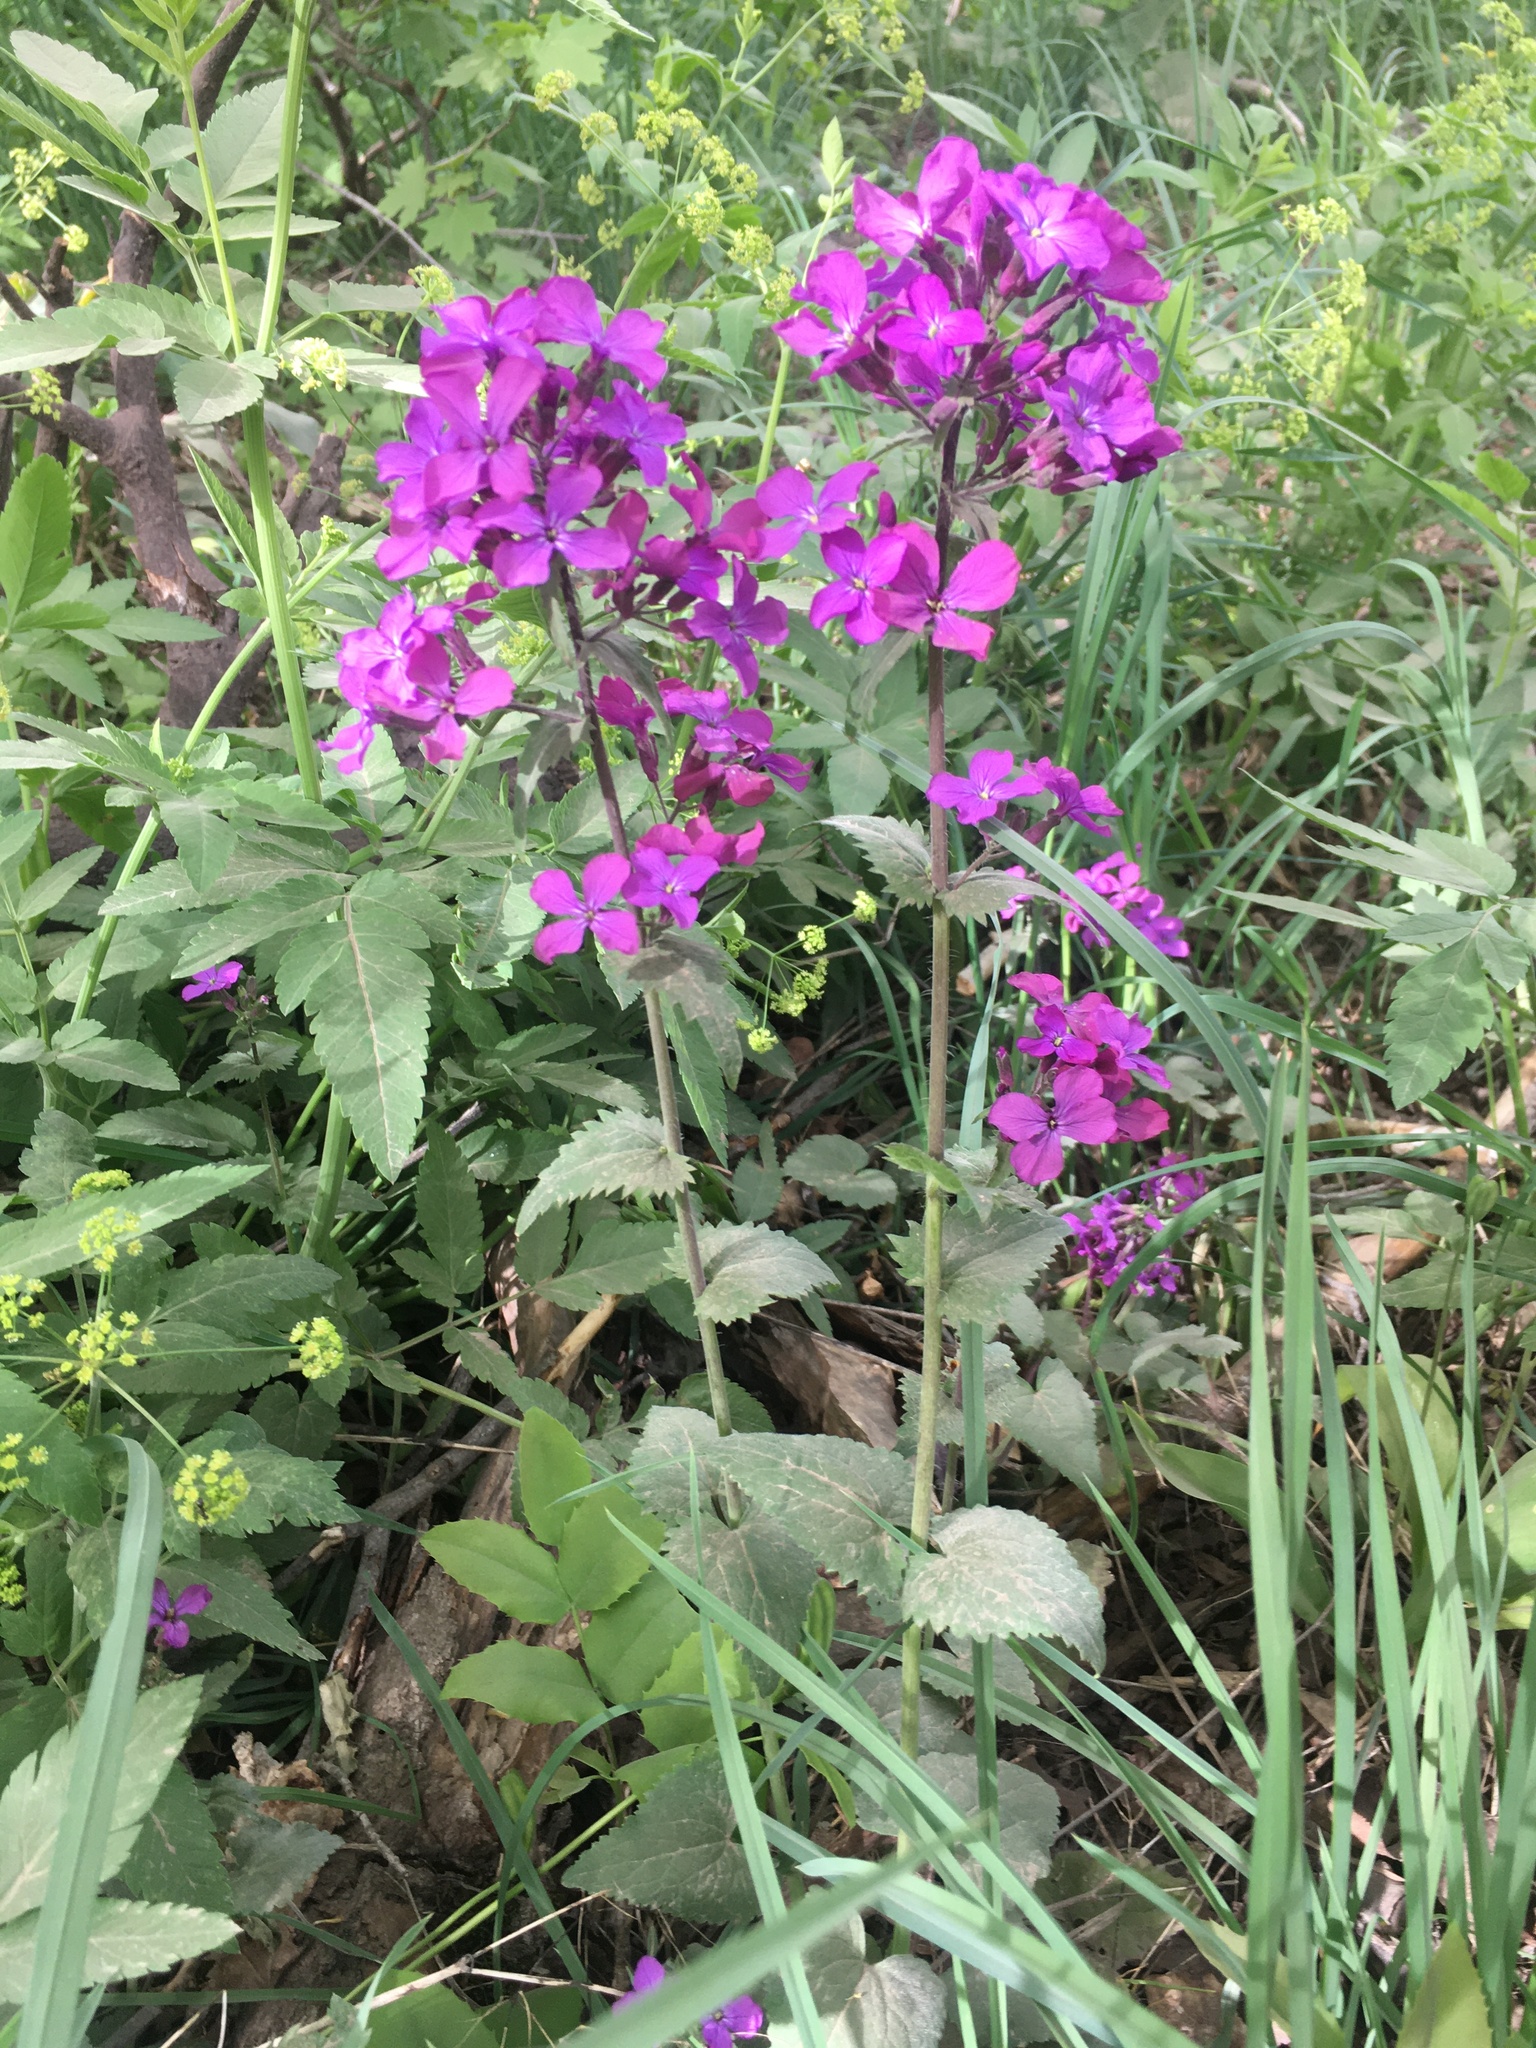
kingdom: Plantae
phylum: Tracheophyta
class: Magnoliopsida
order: Brassicales
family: Brassicaceae
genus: Lunaria
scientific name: Lunaria annua
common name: Honesty
